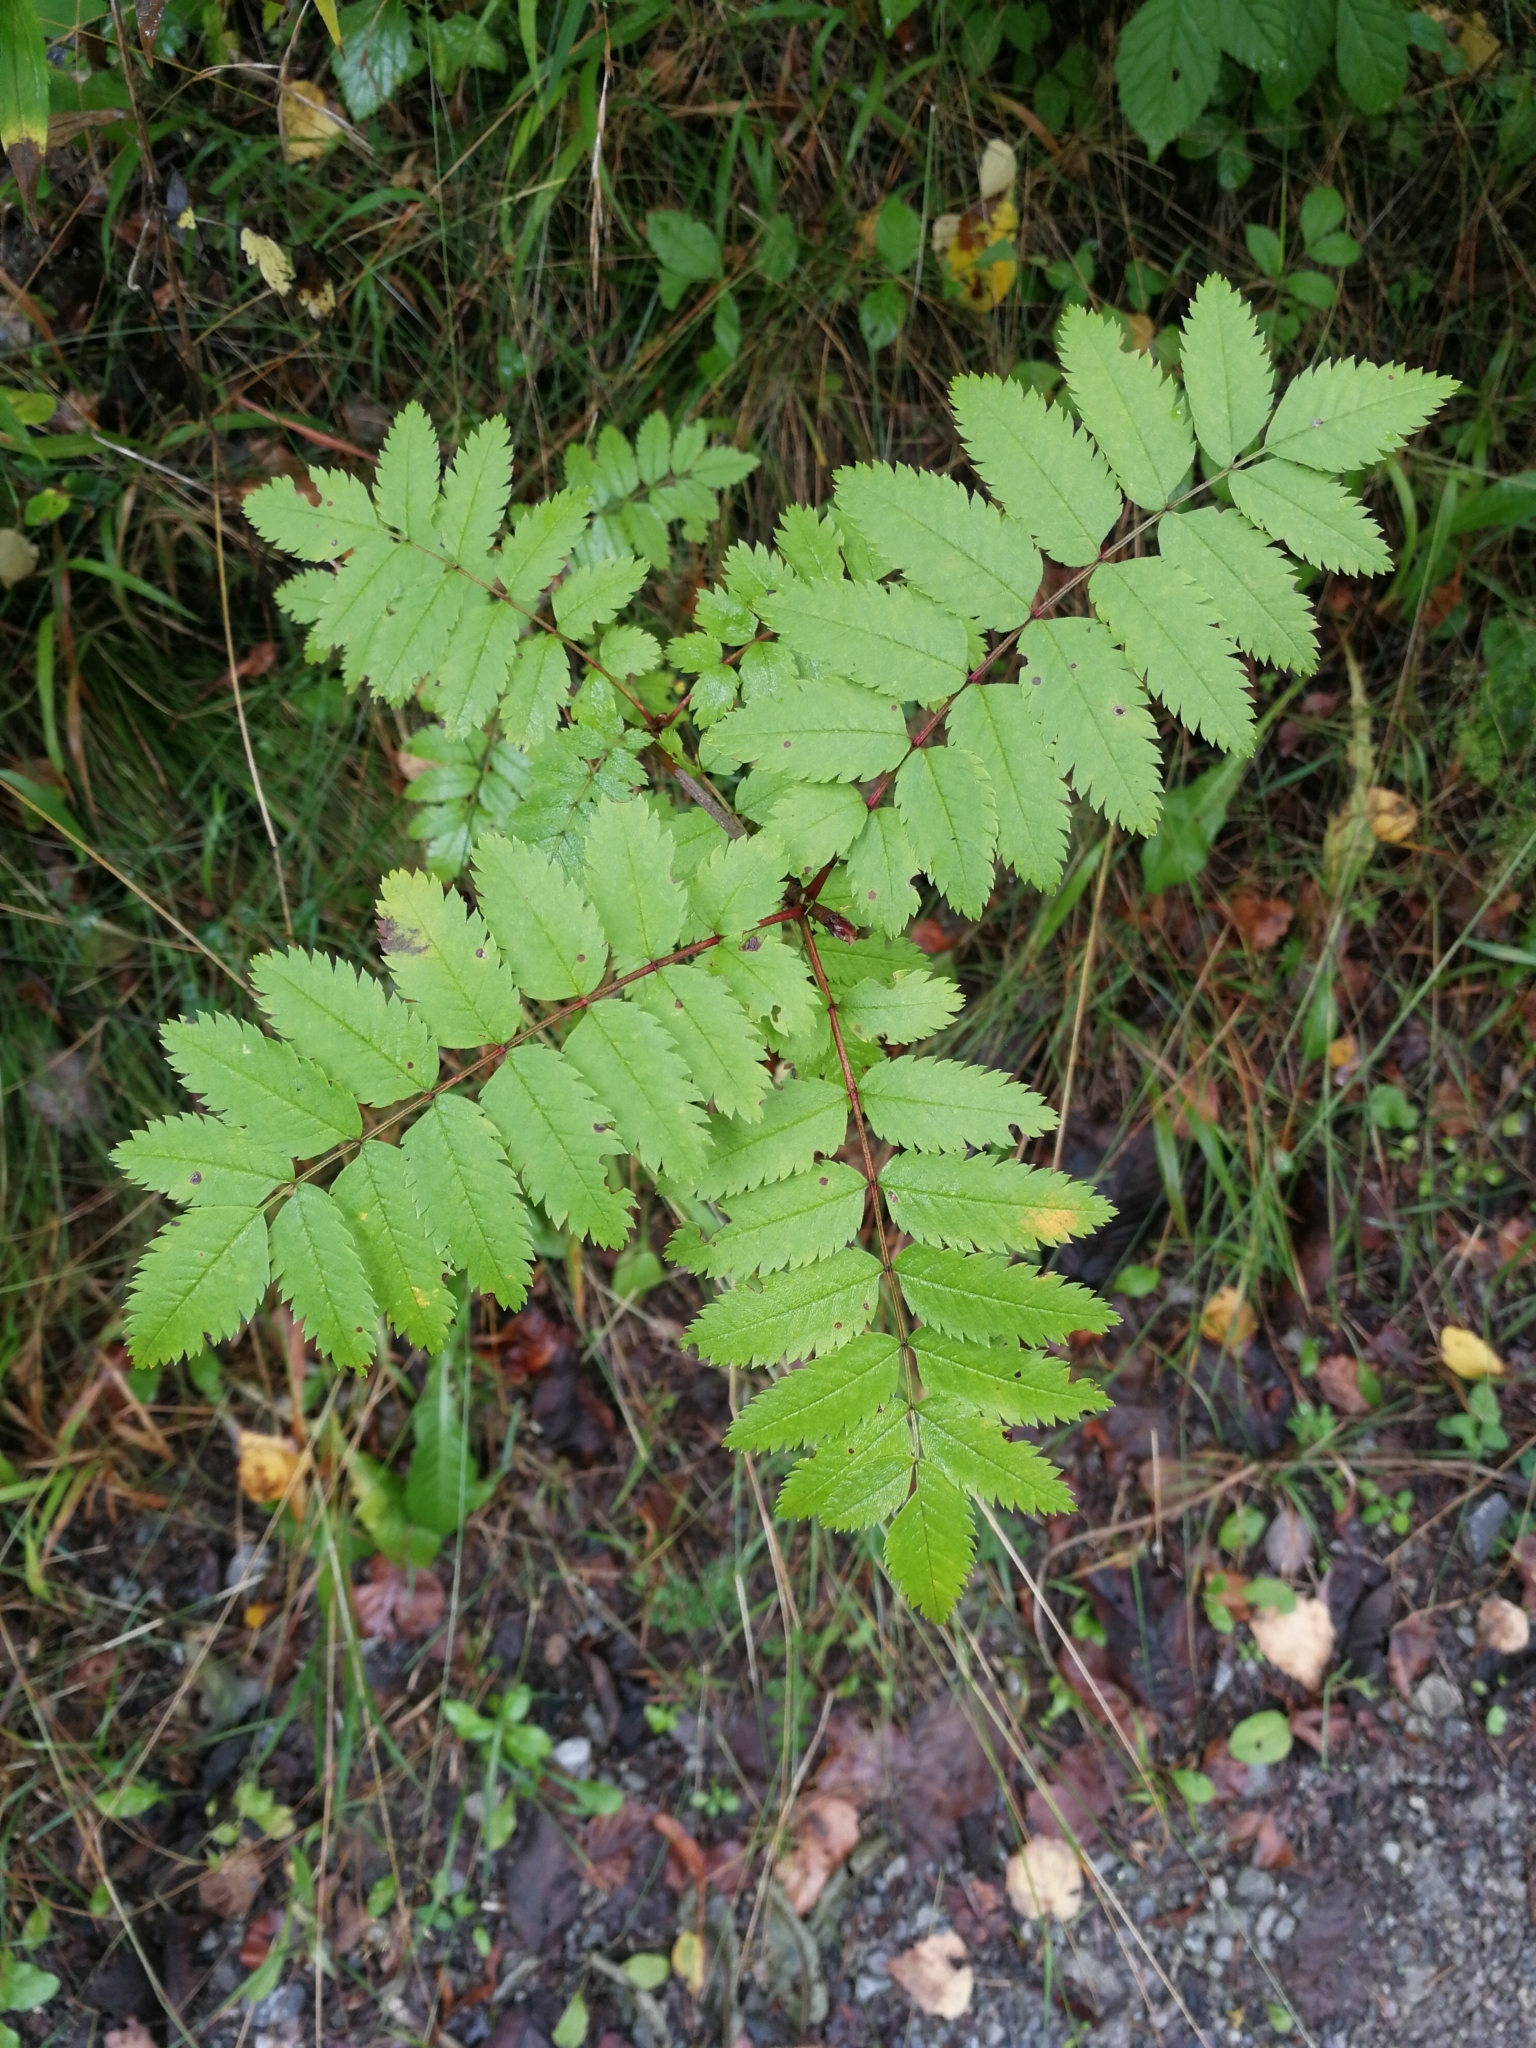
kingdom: Plantae
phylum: Tracheophyta
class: Magnoliopsida
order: Rosales
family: Rosaceae
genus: Sorbus
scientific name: Sorbus aucuparia
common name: Rowan
